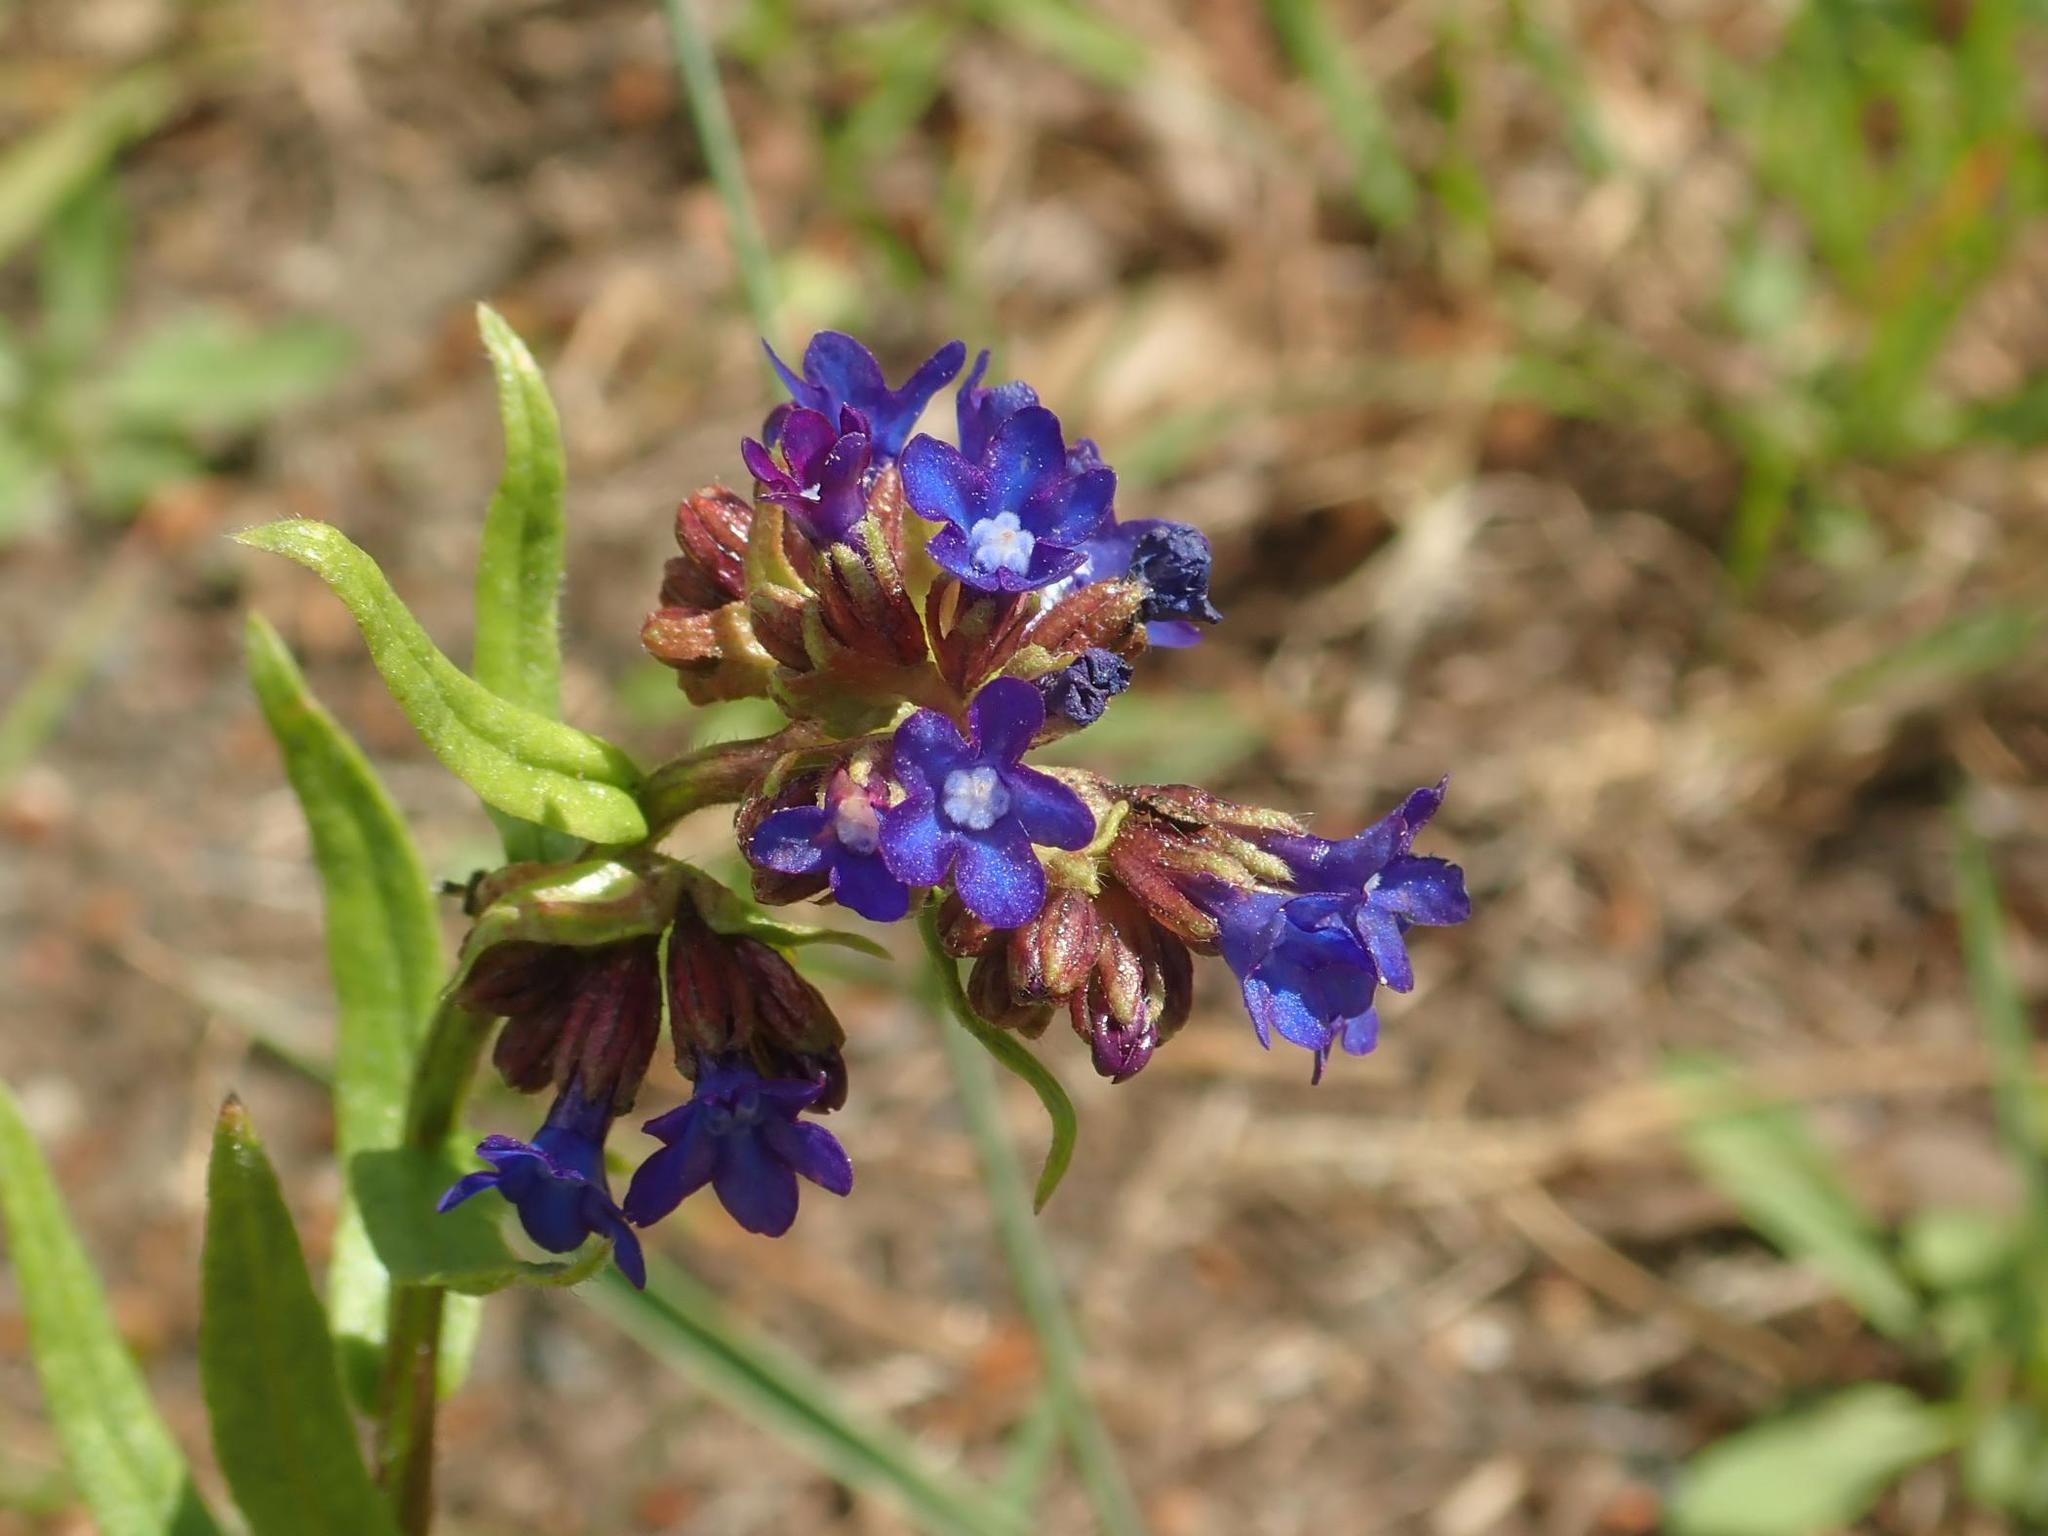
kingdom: Plantae
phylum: Tracheophyta
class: Magnoliopsida
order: Boraginales
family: Boraginaceae
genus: Anchusa
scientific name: Anchusa officinalis
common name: Alkanet
